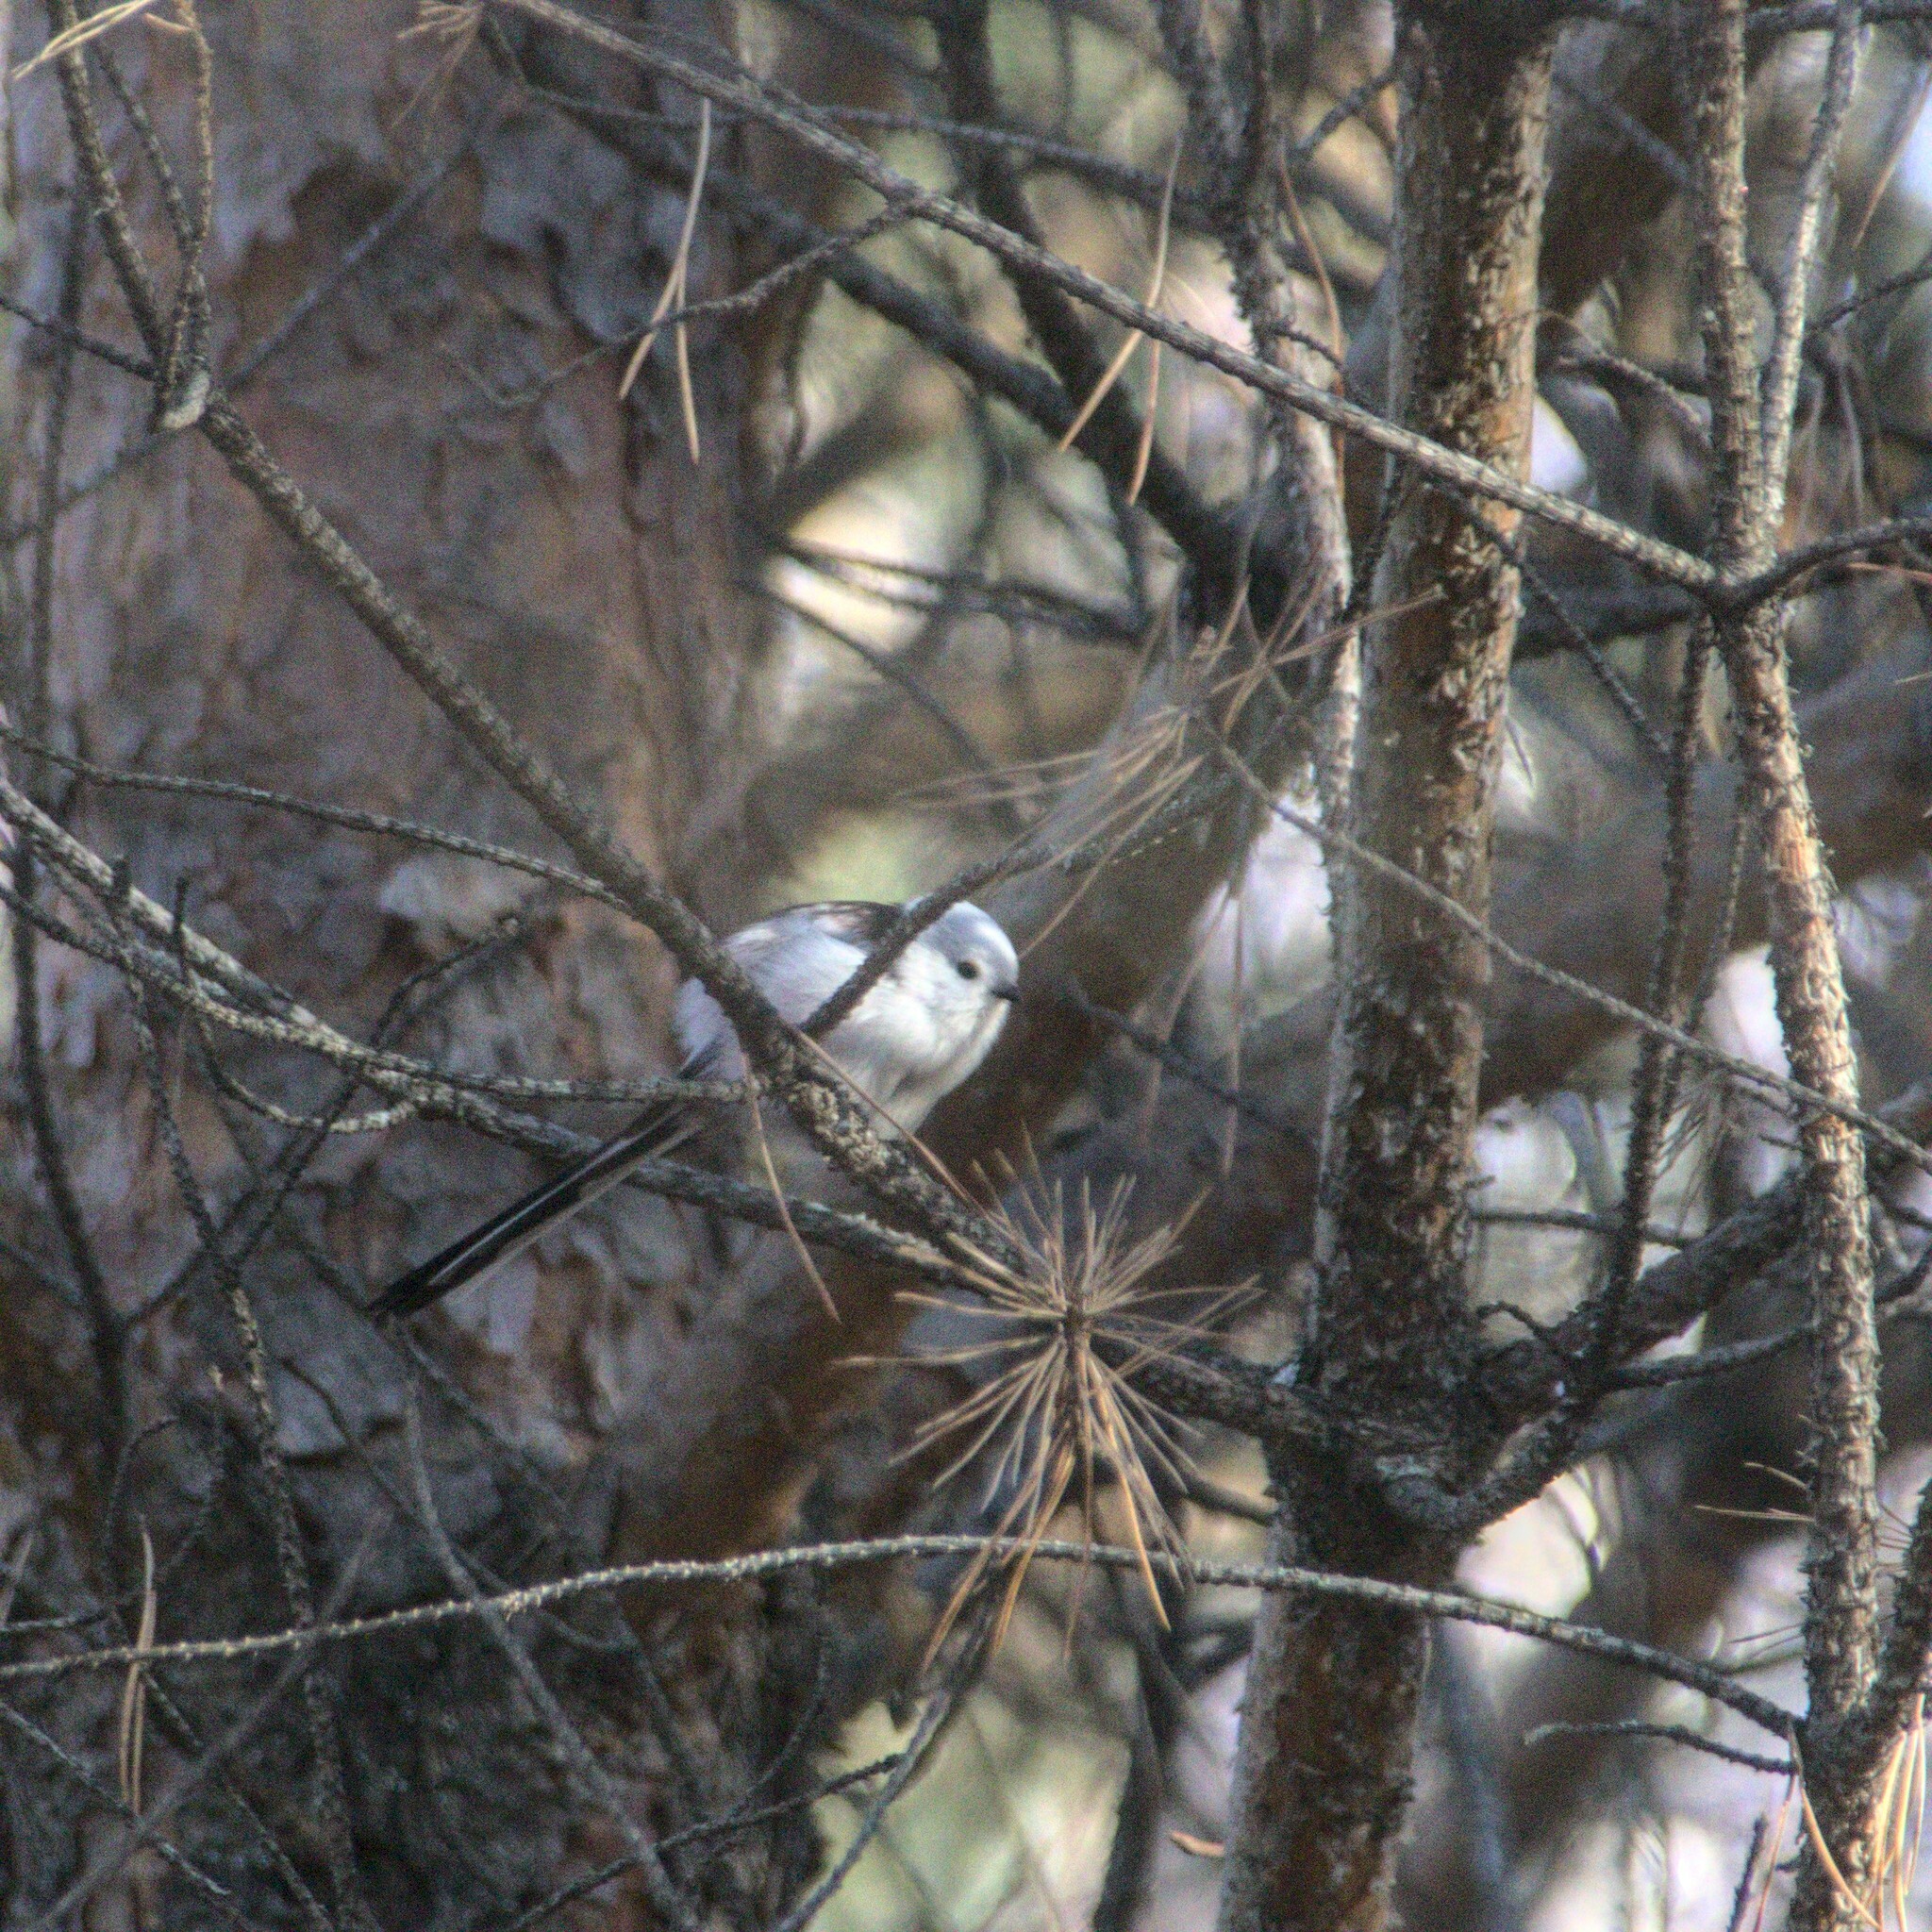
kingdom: Animalia
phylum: Chordata
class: Aves
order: Passeriformes
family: Aegithalidae
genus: Aegithalos
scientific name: Aegithalos caudatus
